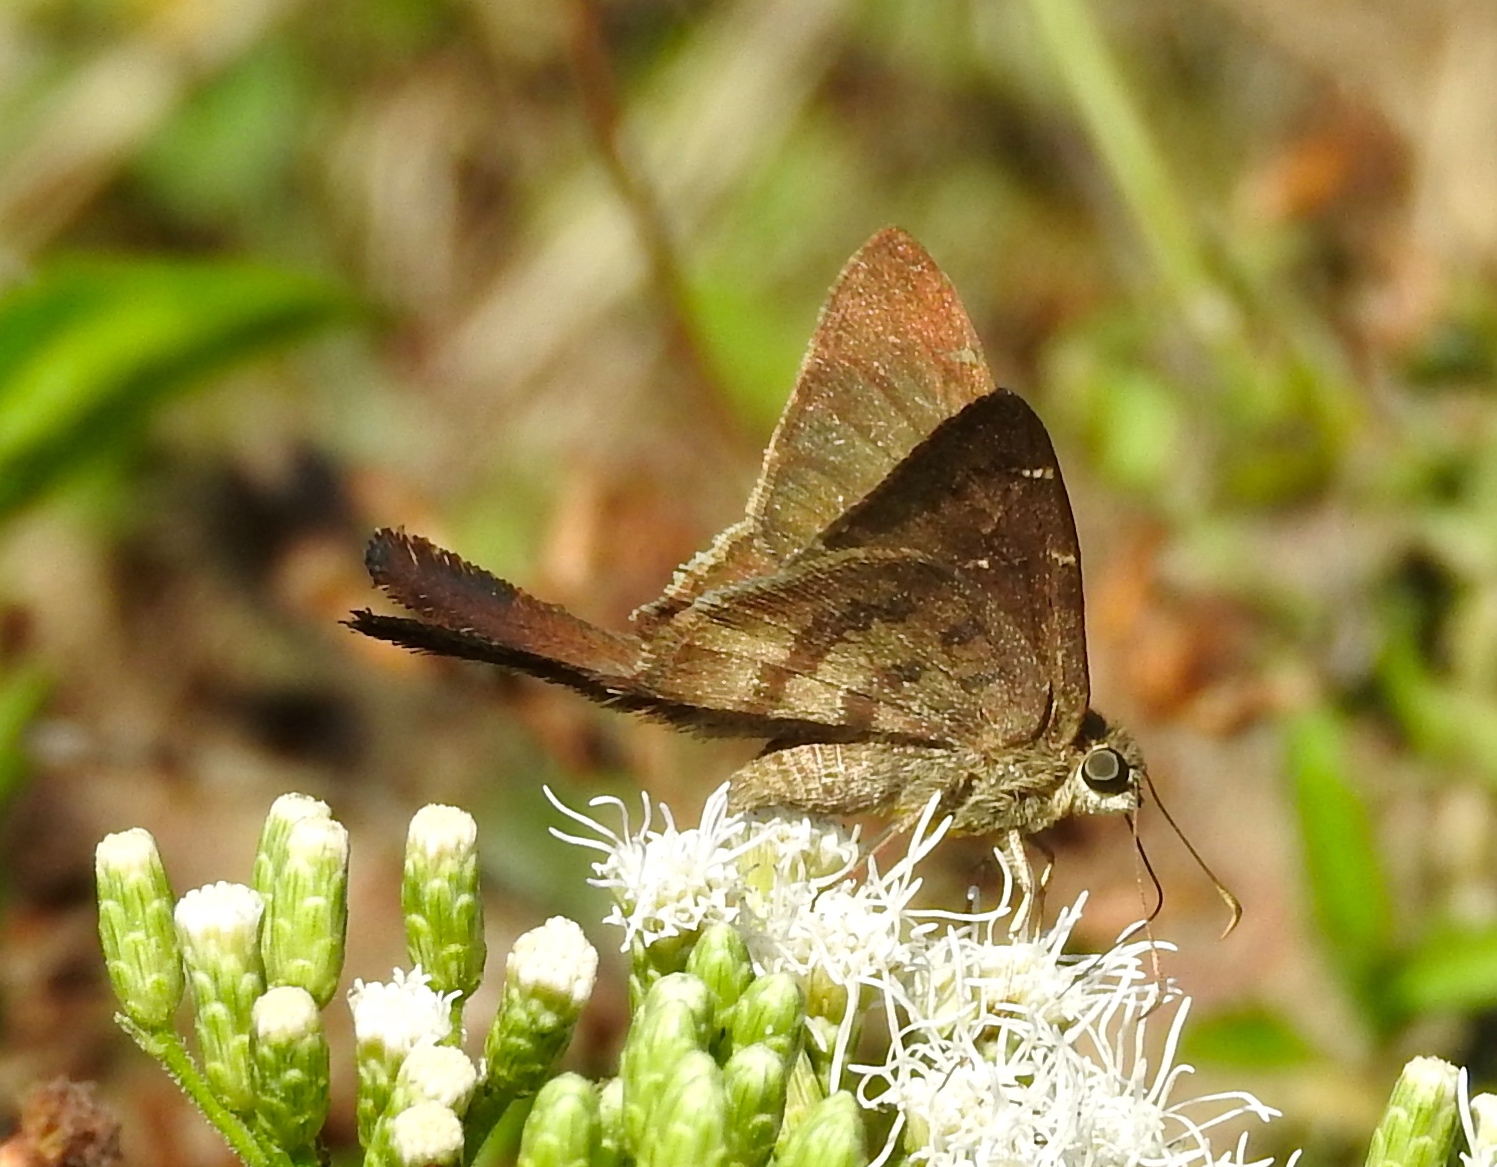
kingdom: Animalia
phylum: Arthropoda
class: Insecta
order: Lepidoptera
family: Hesperiidae
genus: Urbanus
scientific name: Urbanus procne
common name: Brown longtail
